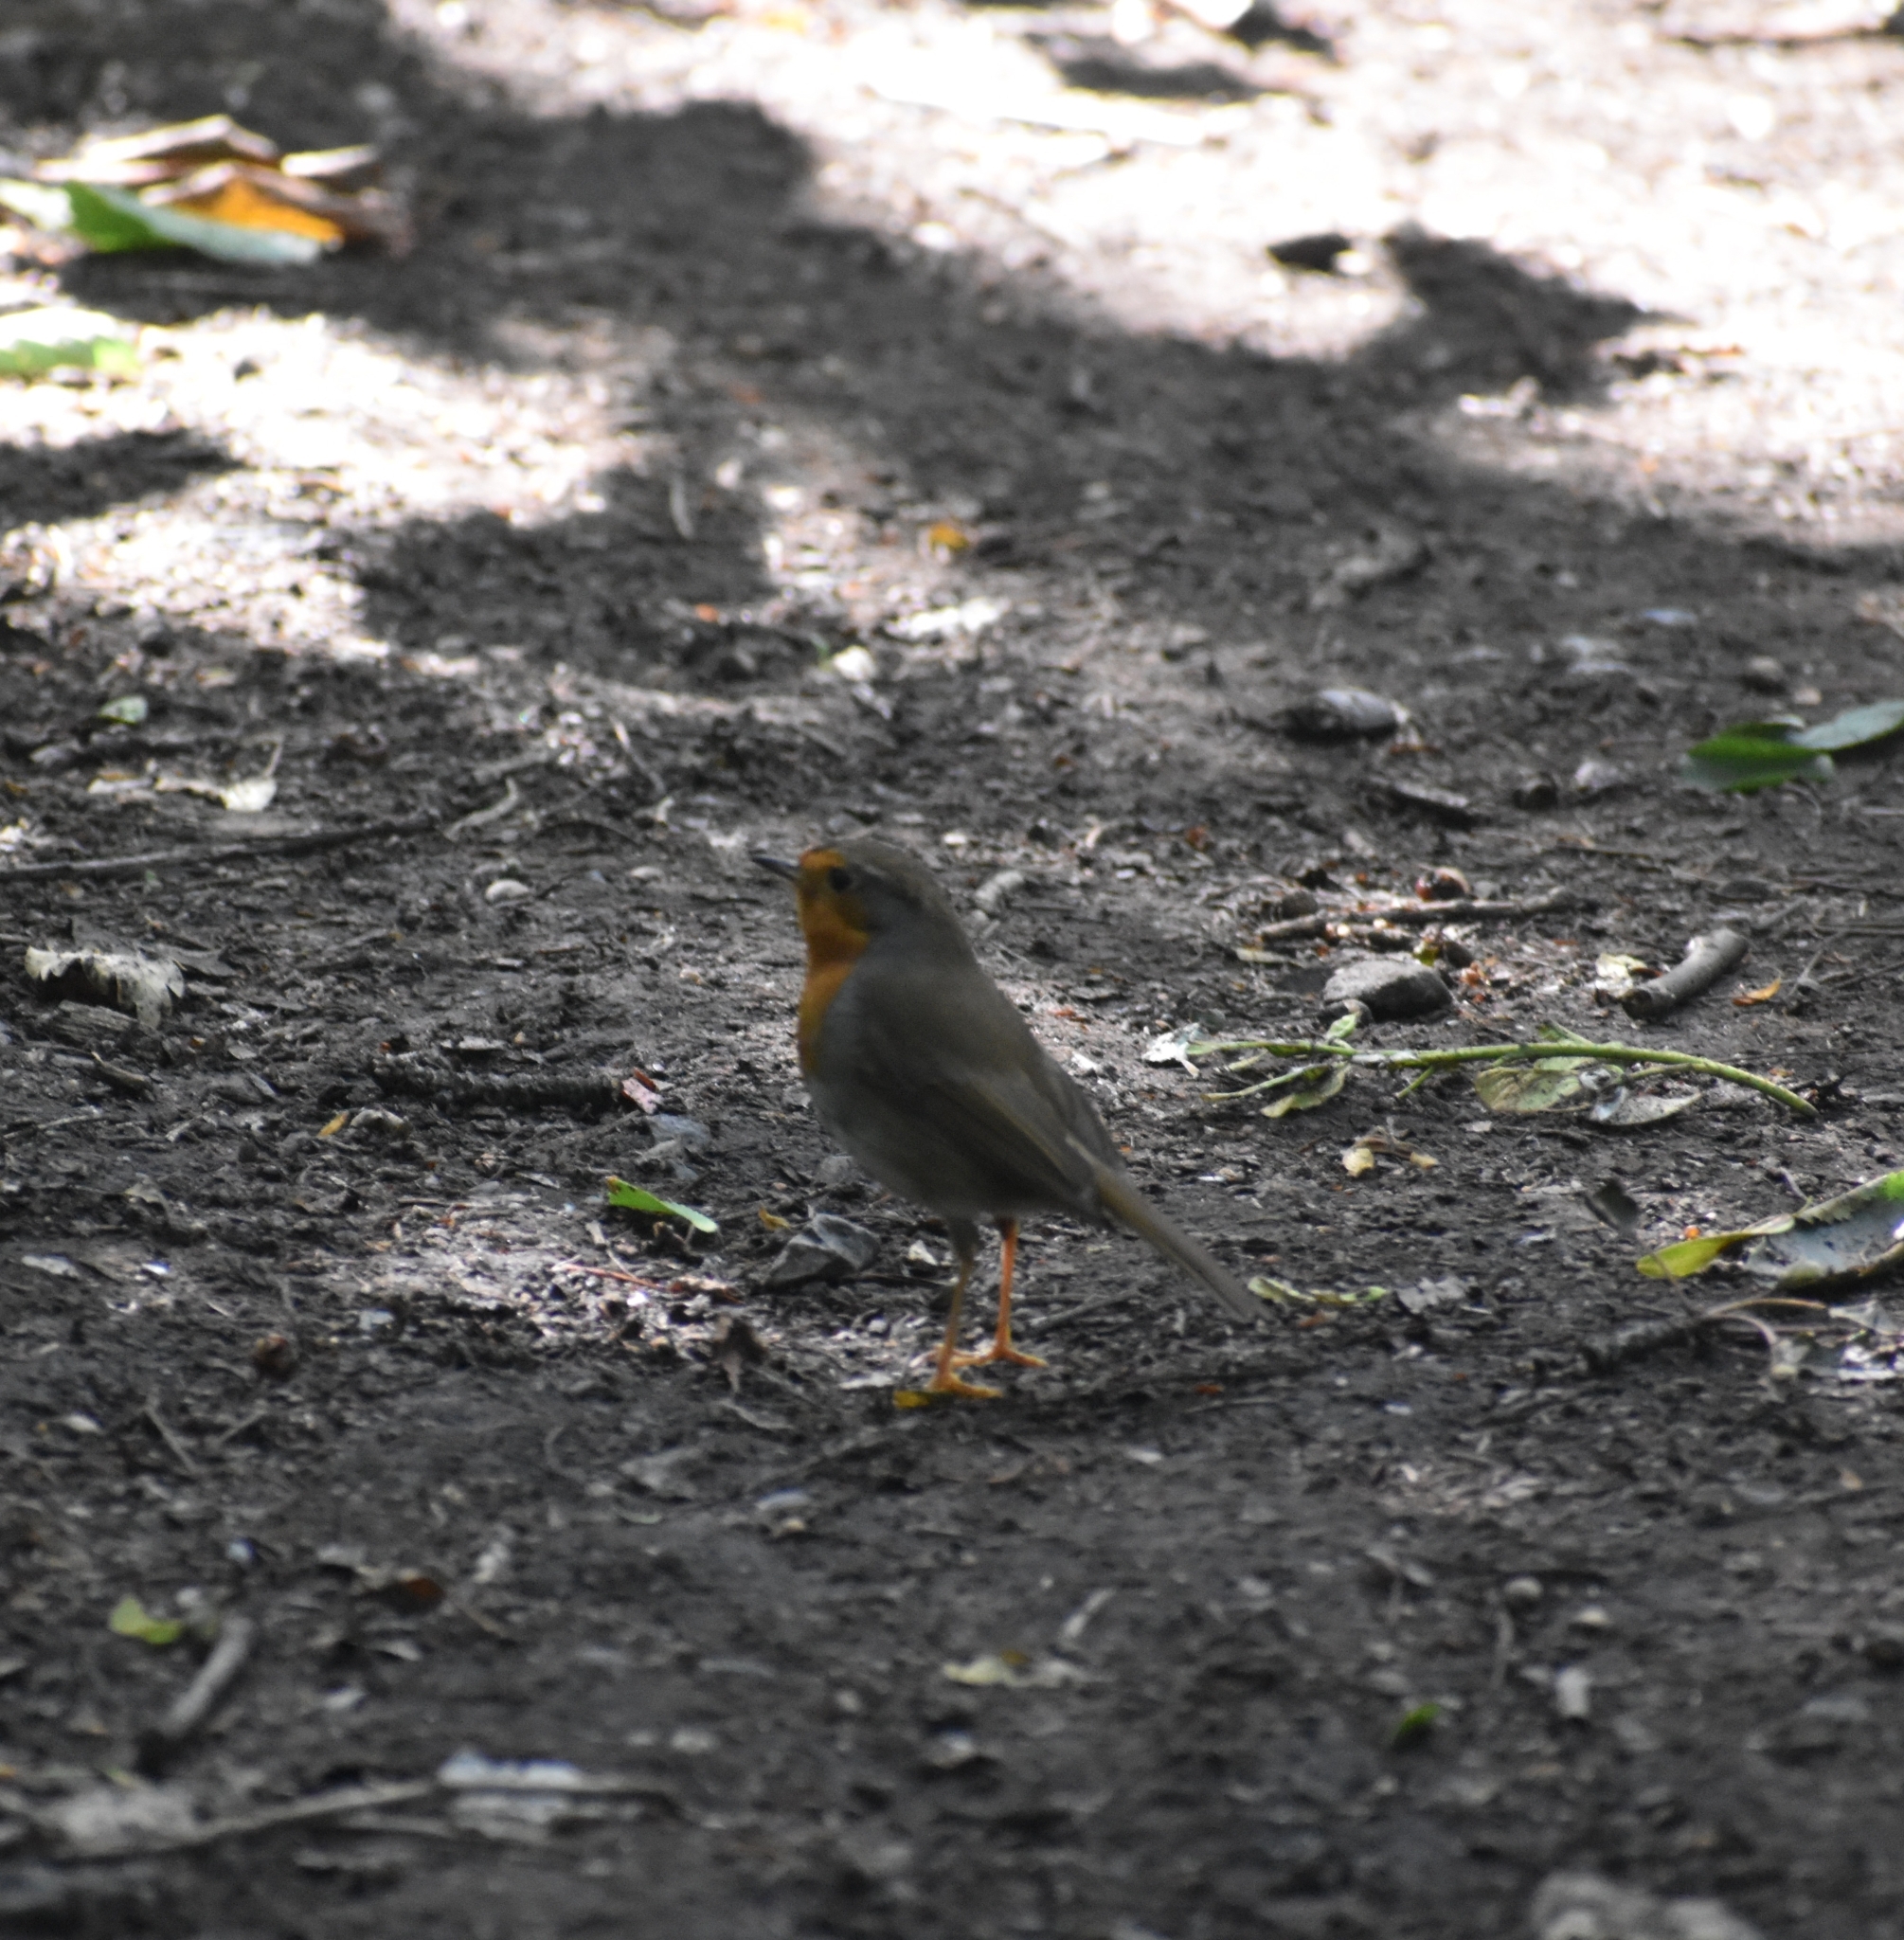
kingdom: Animalia
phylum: Chordata
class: Aves
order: Passeriformes
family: Muscicapidae
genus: Erithacus
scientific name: Erithacus rubecula
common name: European robin
